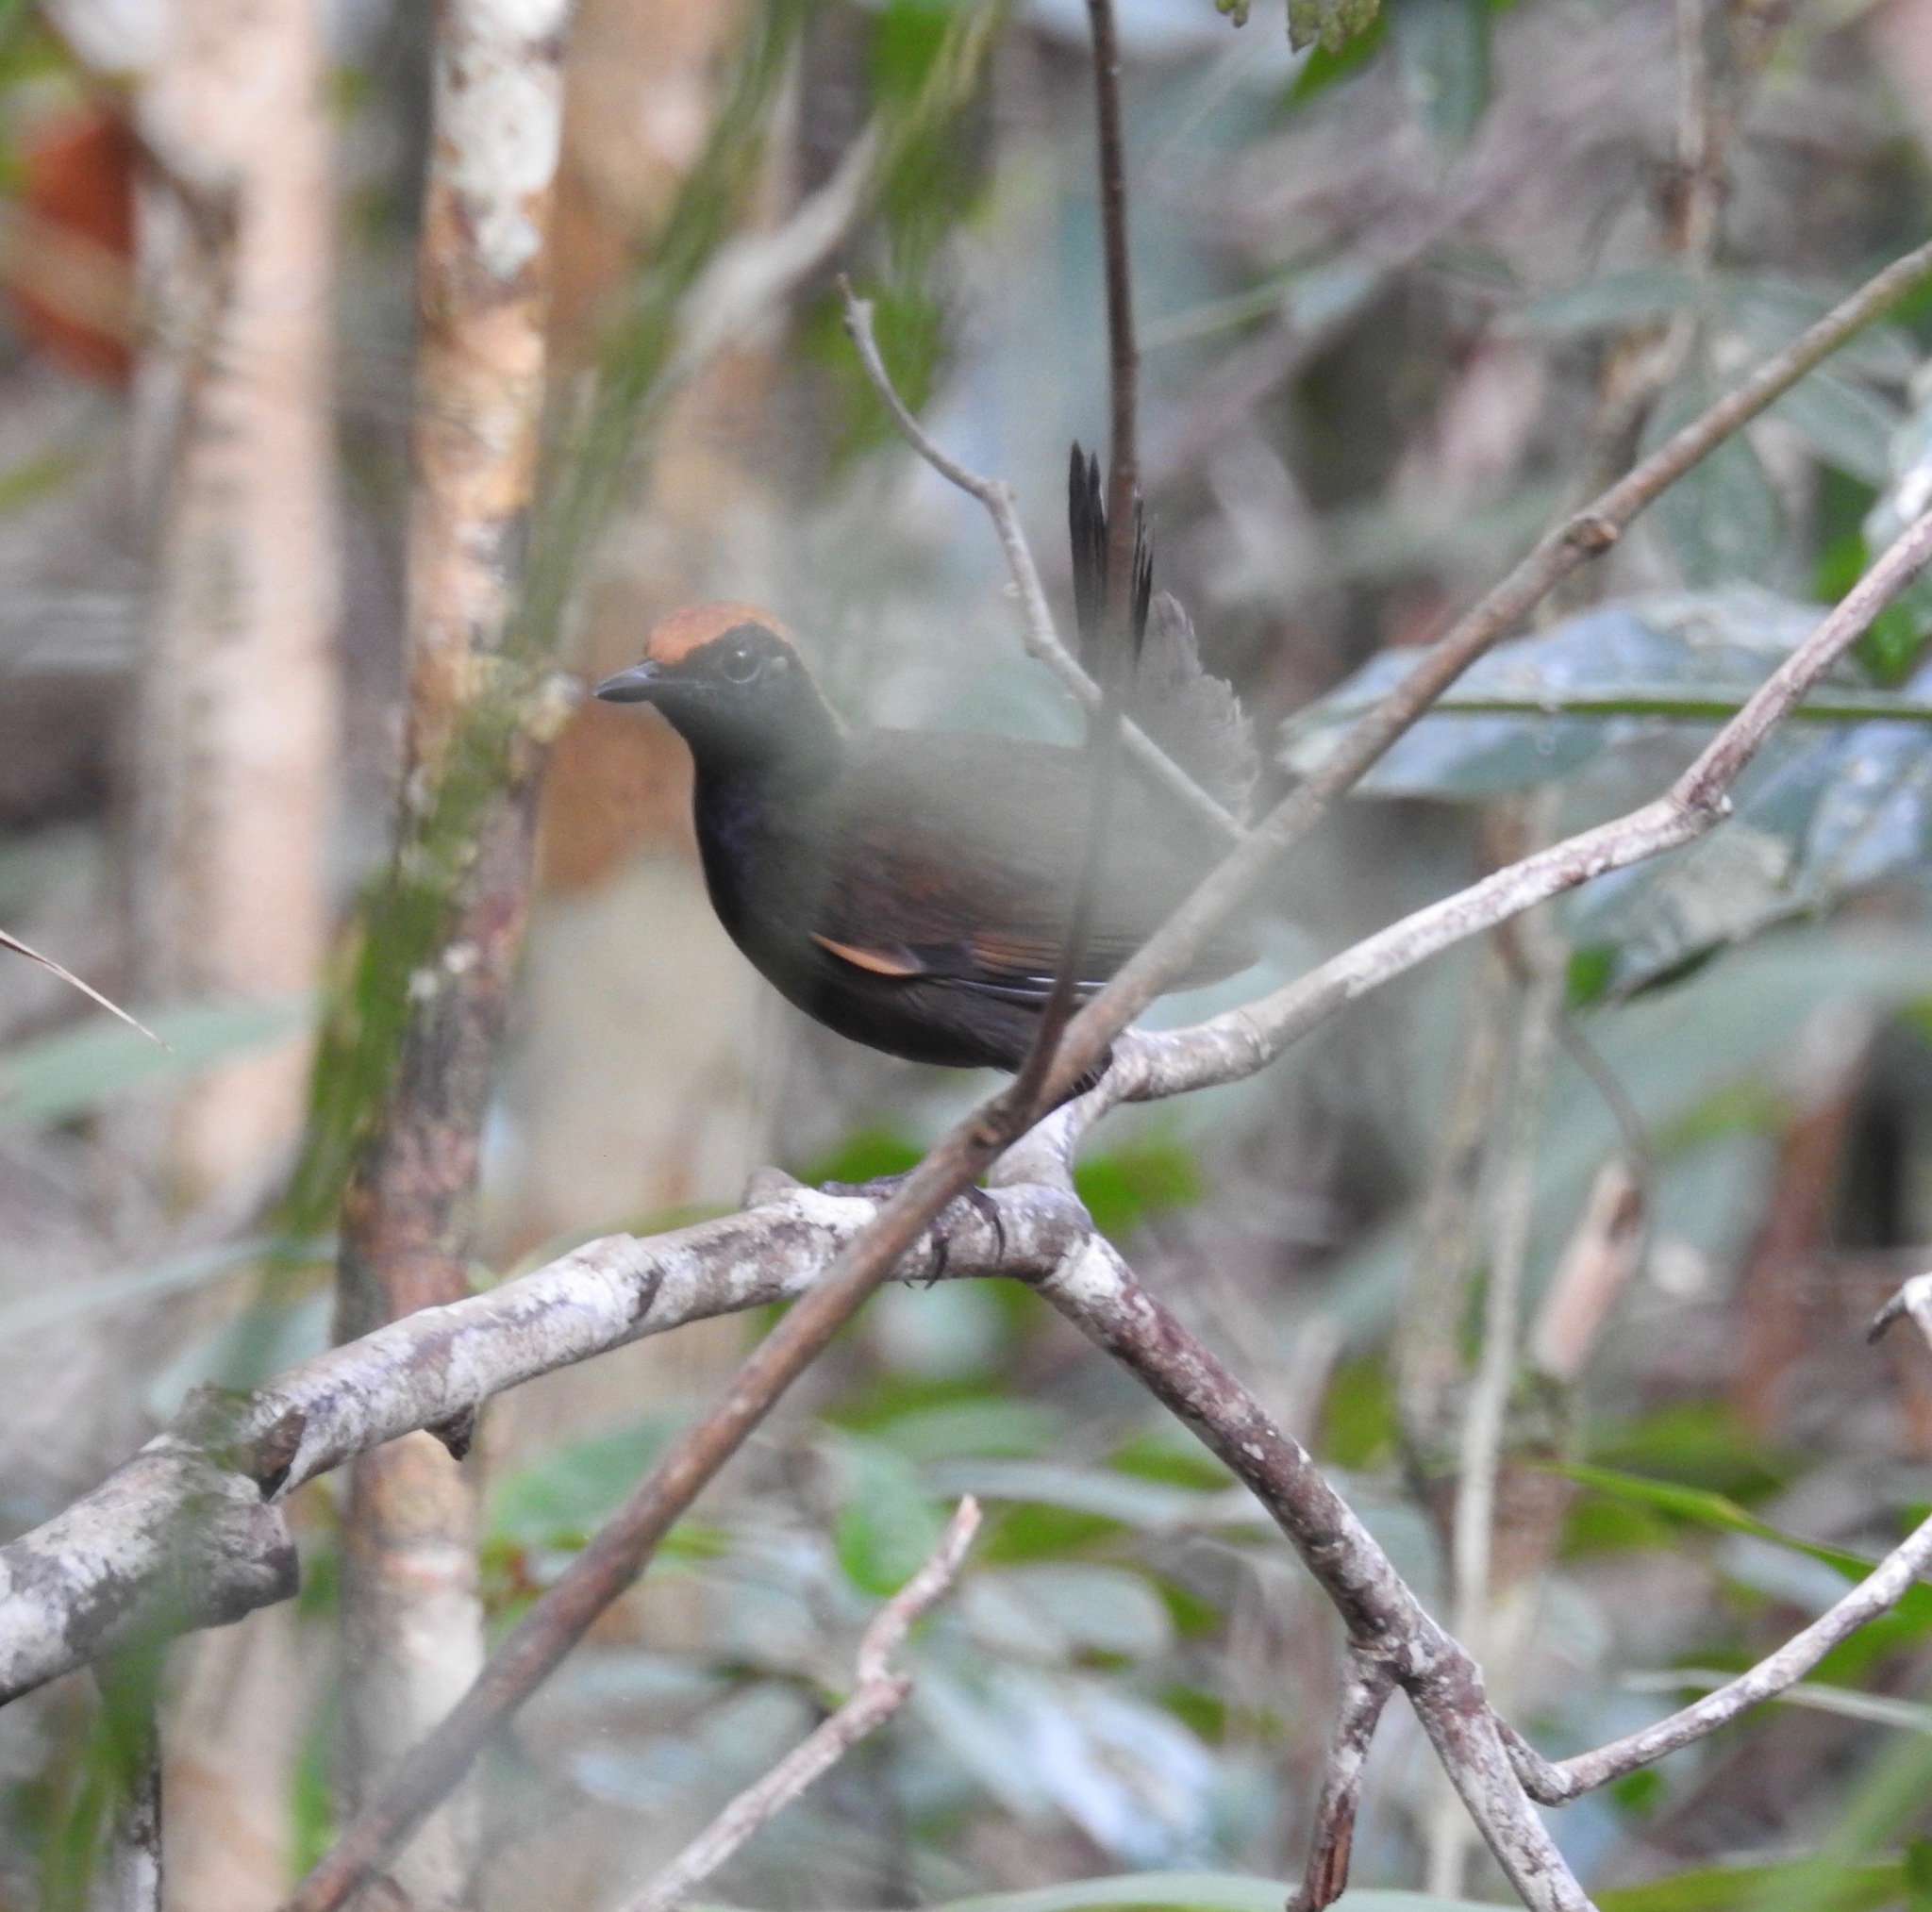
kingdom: Animalia
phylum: Chordata
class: Aves
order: Passeriformes
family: Formicariidae
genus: Formicarius
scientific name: Formicarius colma
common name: Rufous-capped antthrush
